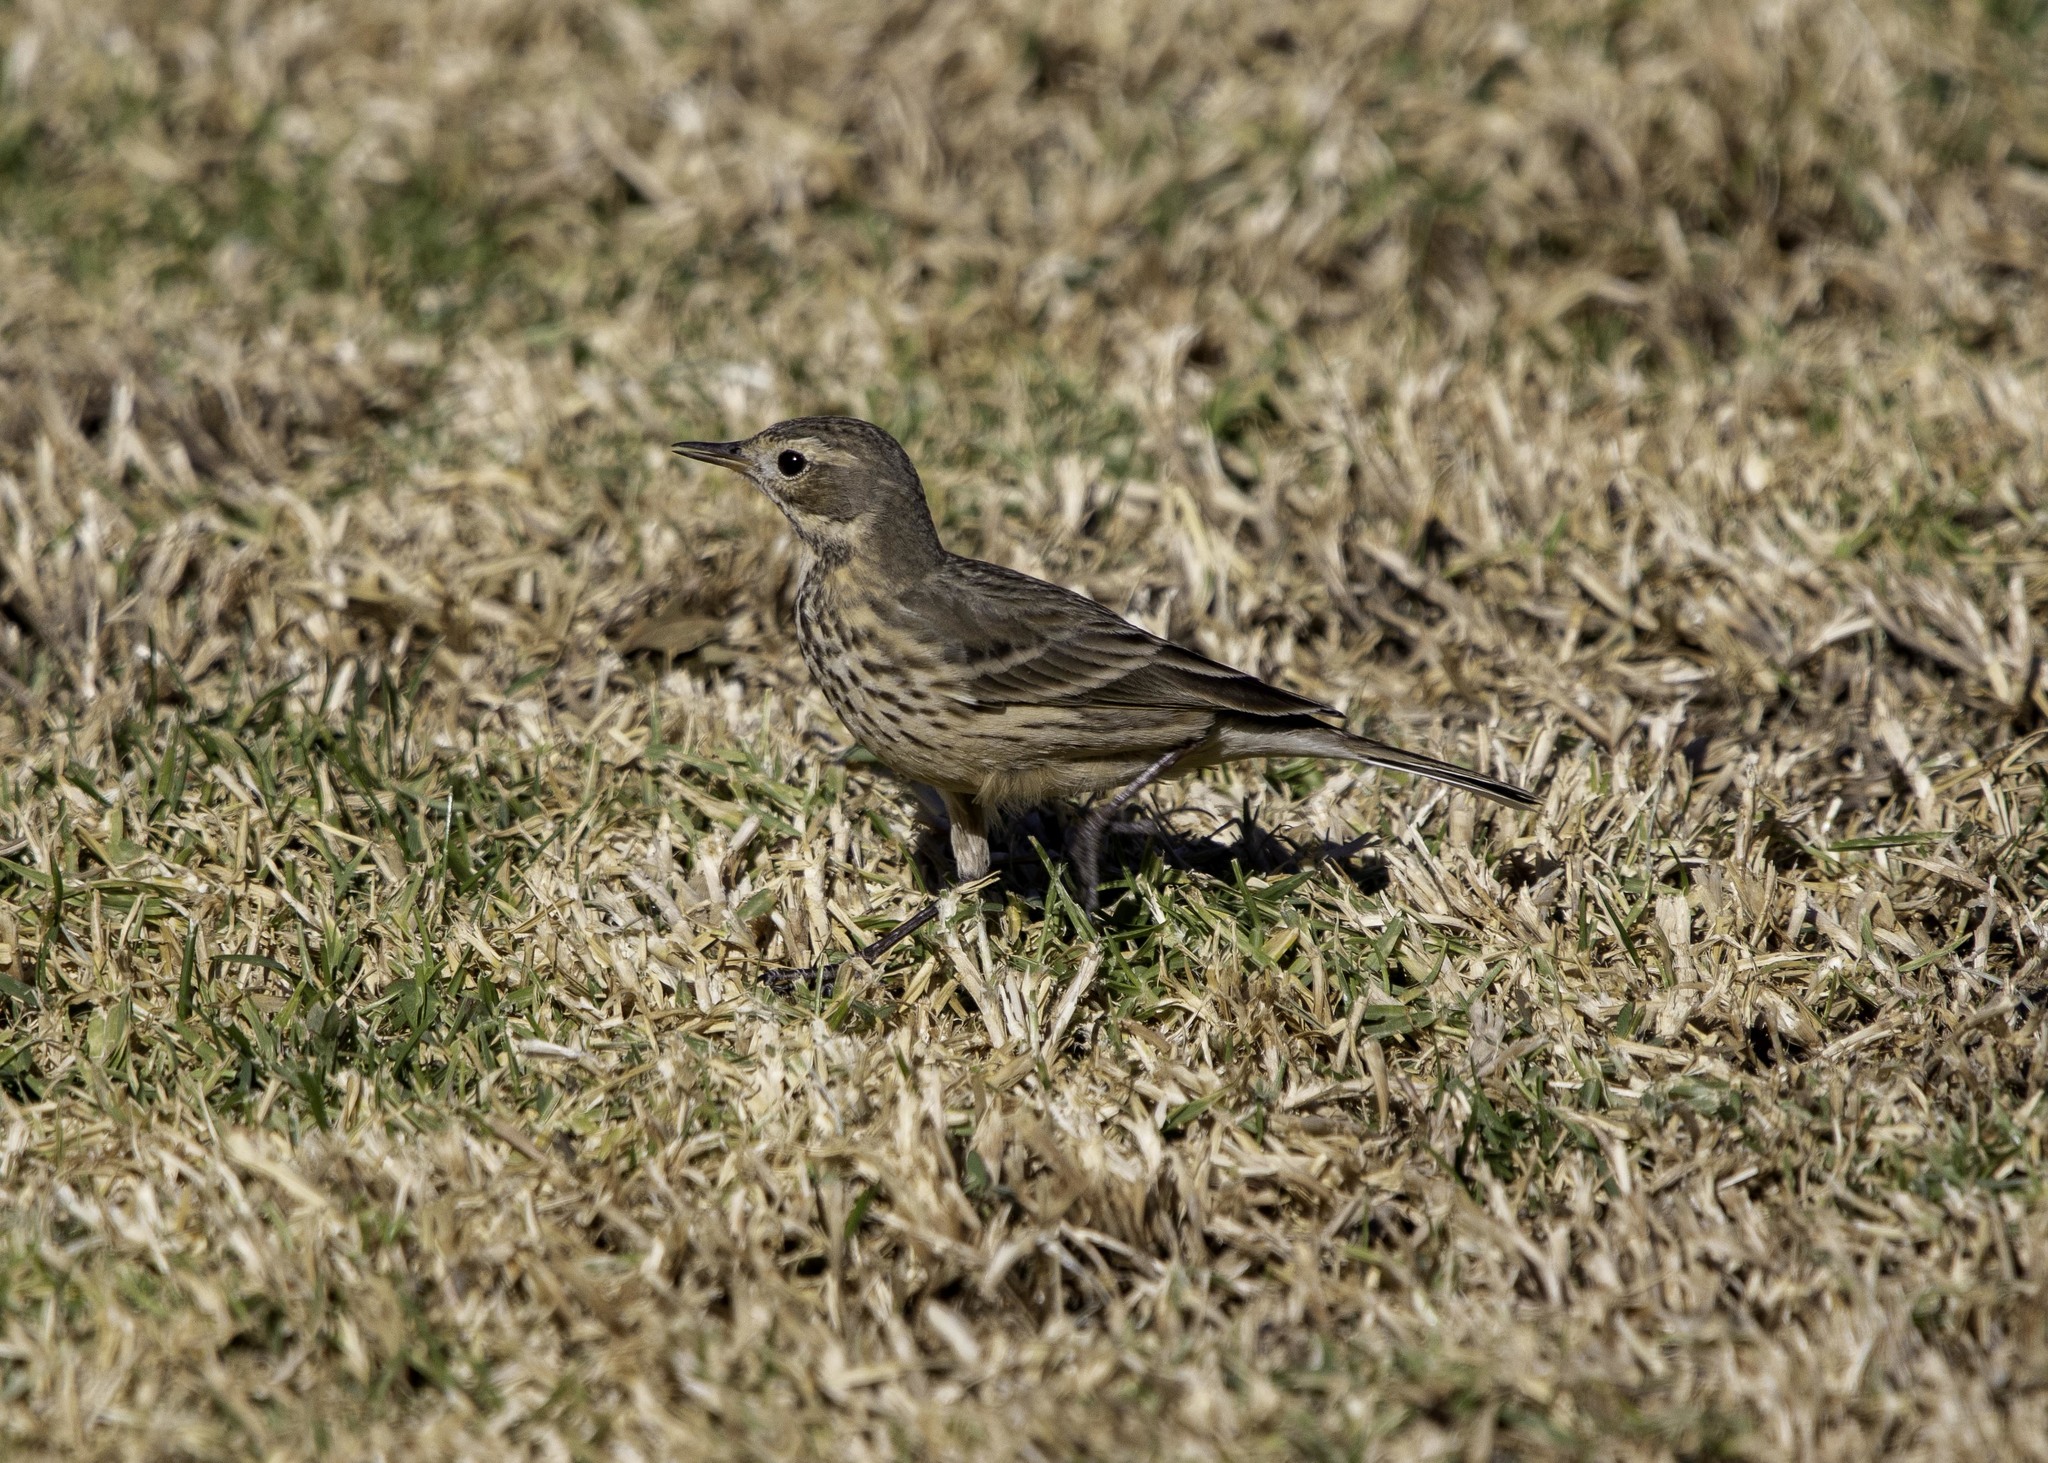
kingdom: Animalia
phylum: Chordata
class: Aves
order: Passeriformes
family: Motacillidae
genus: Anthus
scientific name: Anthus rubescens
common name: Buff-bellied pipit
